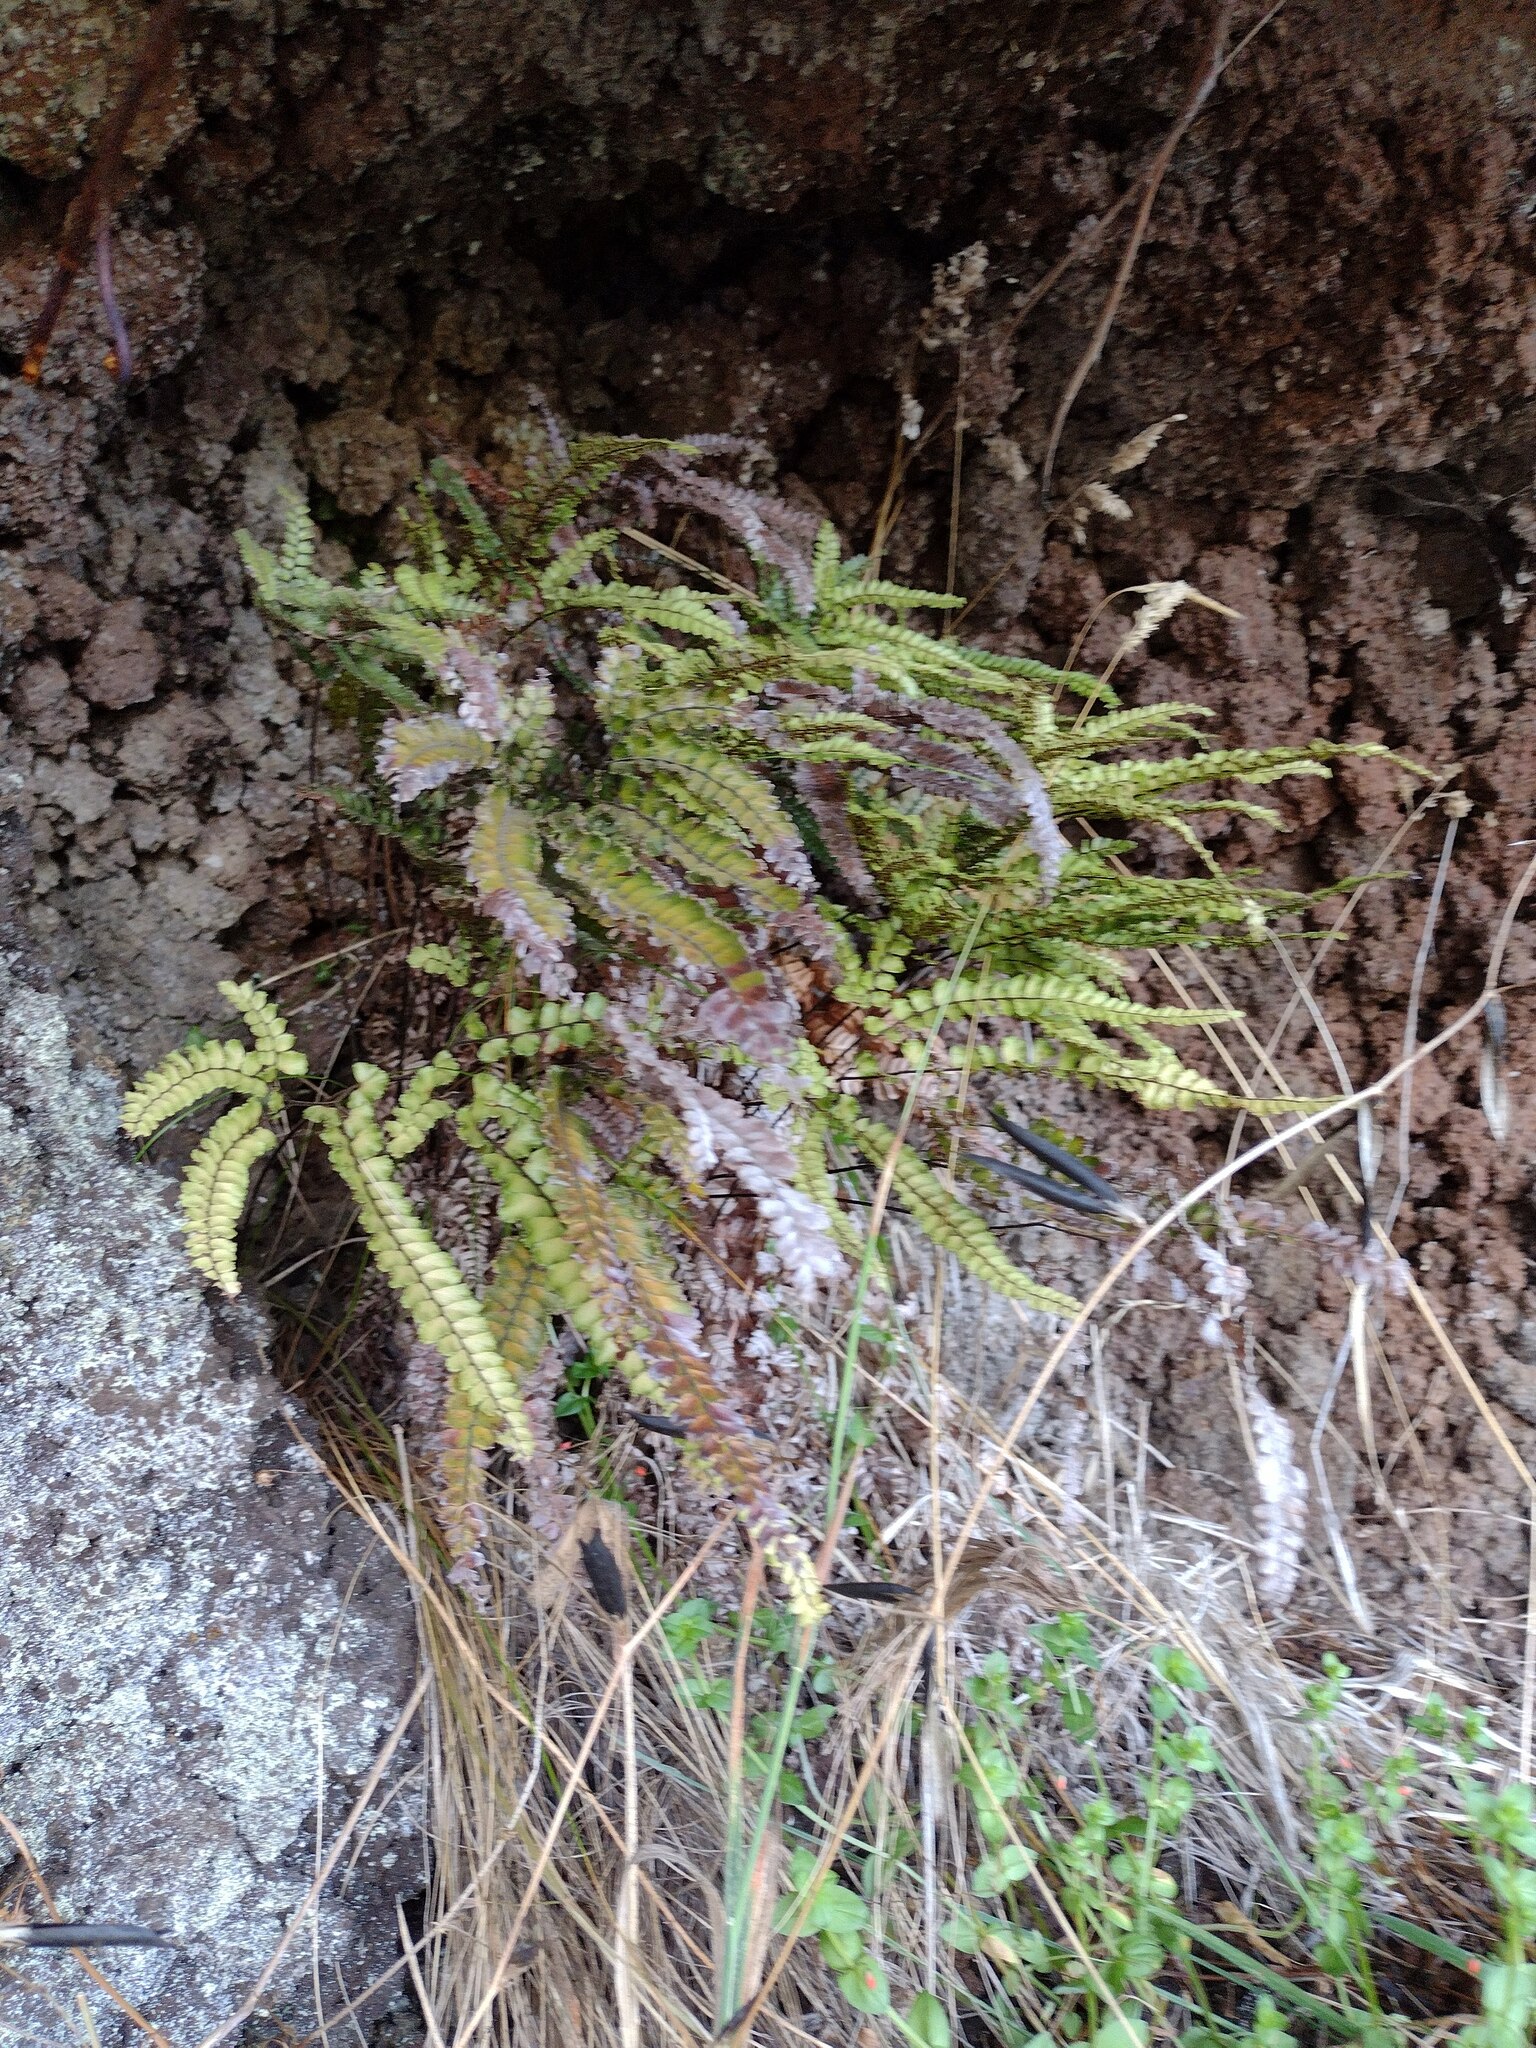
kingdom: Plantae
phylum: Tracheophyta
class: Polypodiopsida
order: Polypodiales
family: Pteridaceae
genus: Adiantum
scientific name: Adiantum hispidulum
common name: Rough maidenhair
